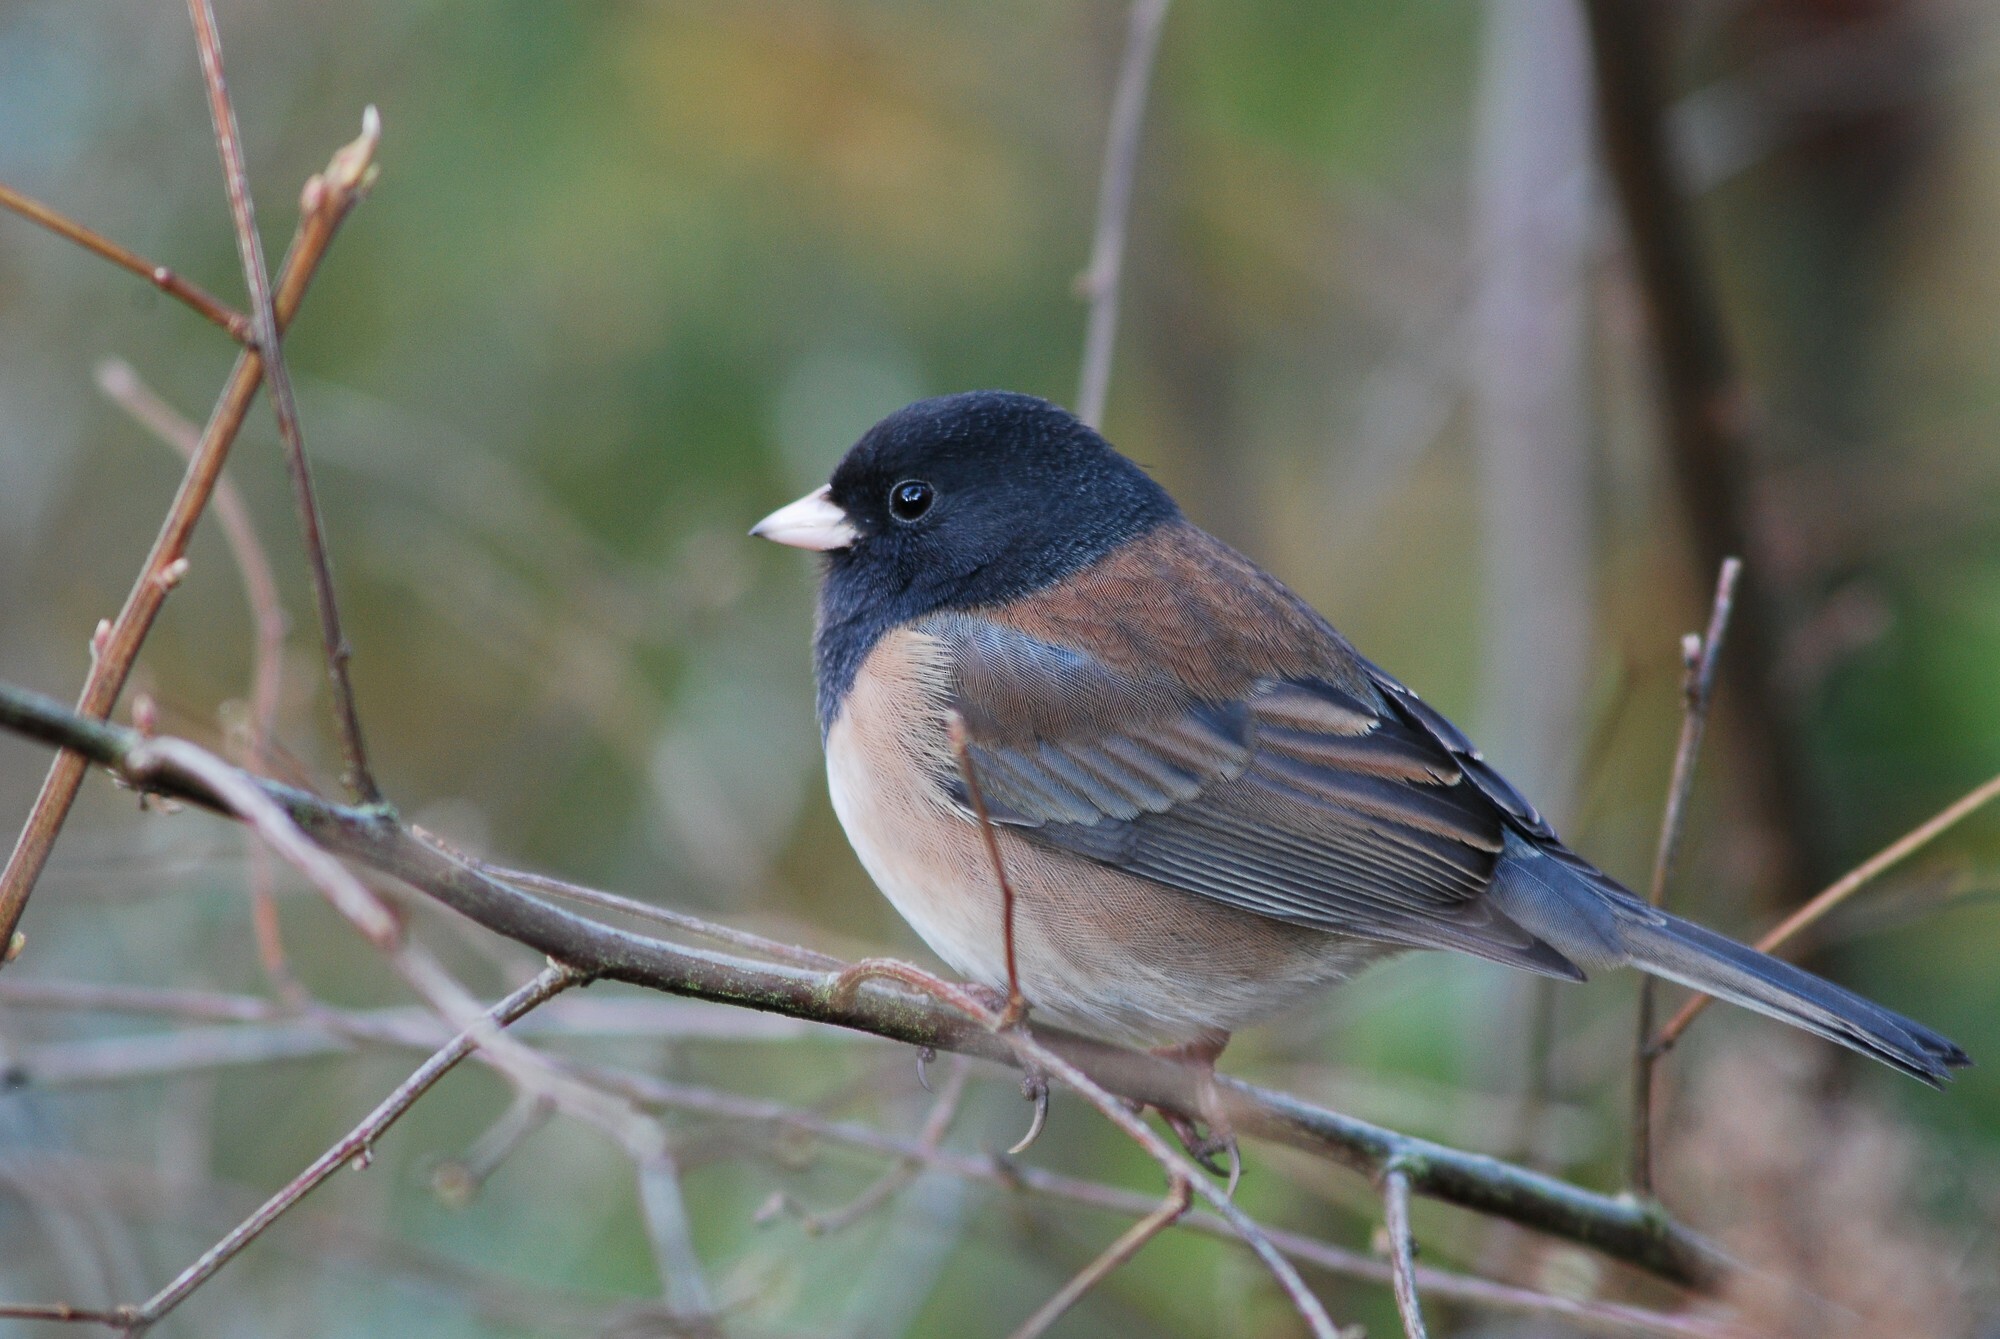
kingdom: Animalia
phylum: Chordata
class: Aves
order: Passeriformes
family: Passerellidae
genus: Junco
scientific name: Junco hyemalis
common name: Dark-eyed junco
